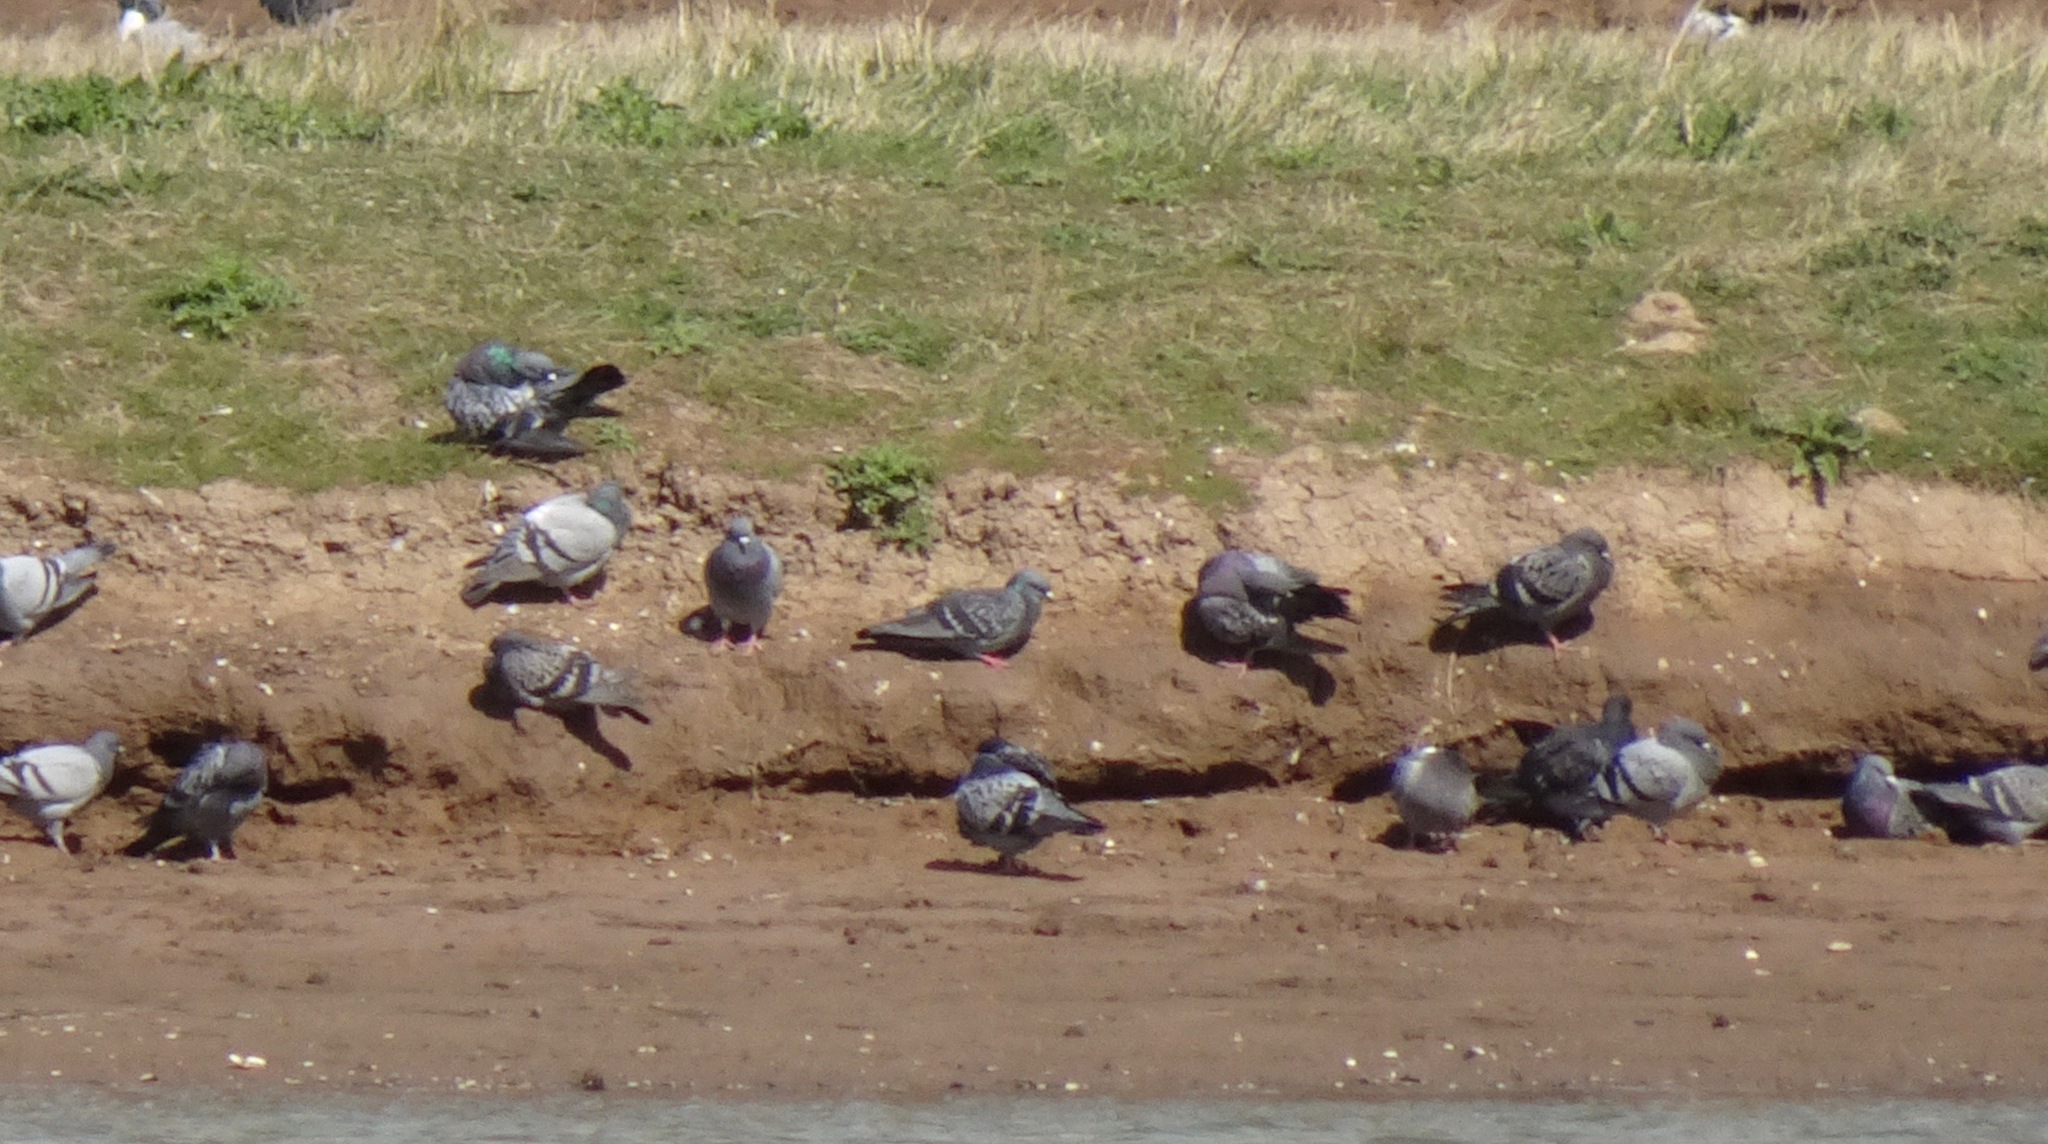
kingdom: Animalia
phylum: Chordata
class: Aves
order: Columbiformes
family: Columbidae
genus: Columba
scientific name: Columba livia
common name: Rock pigeon
